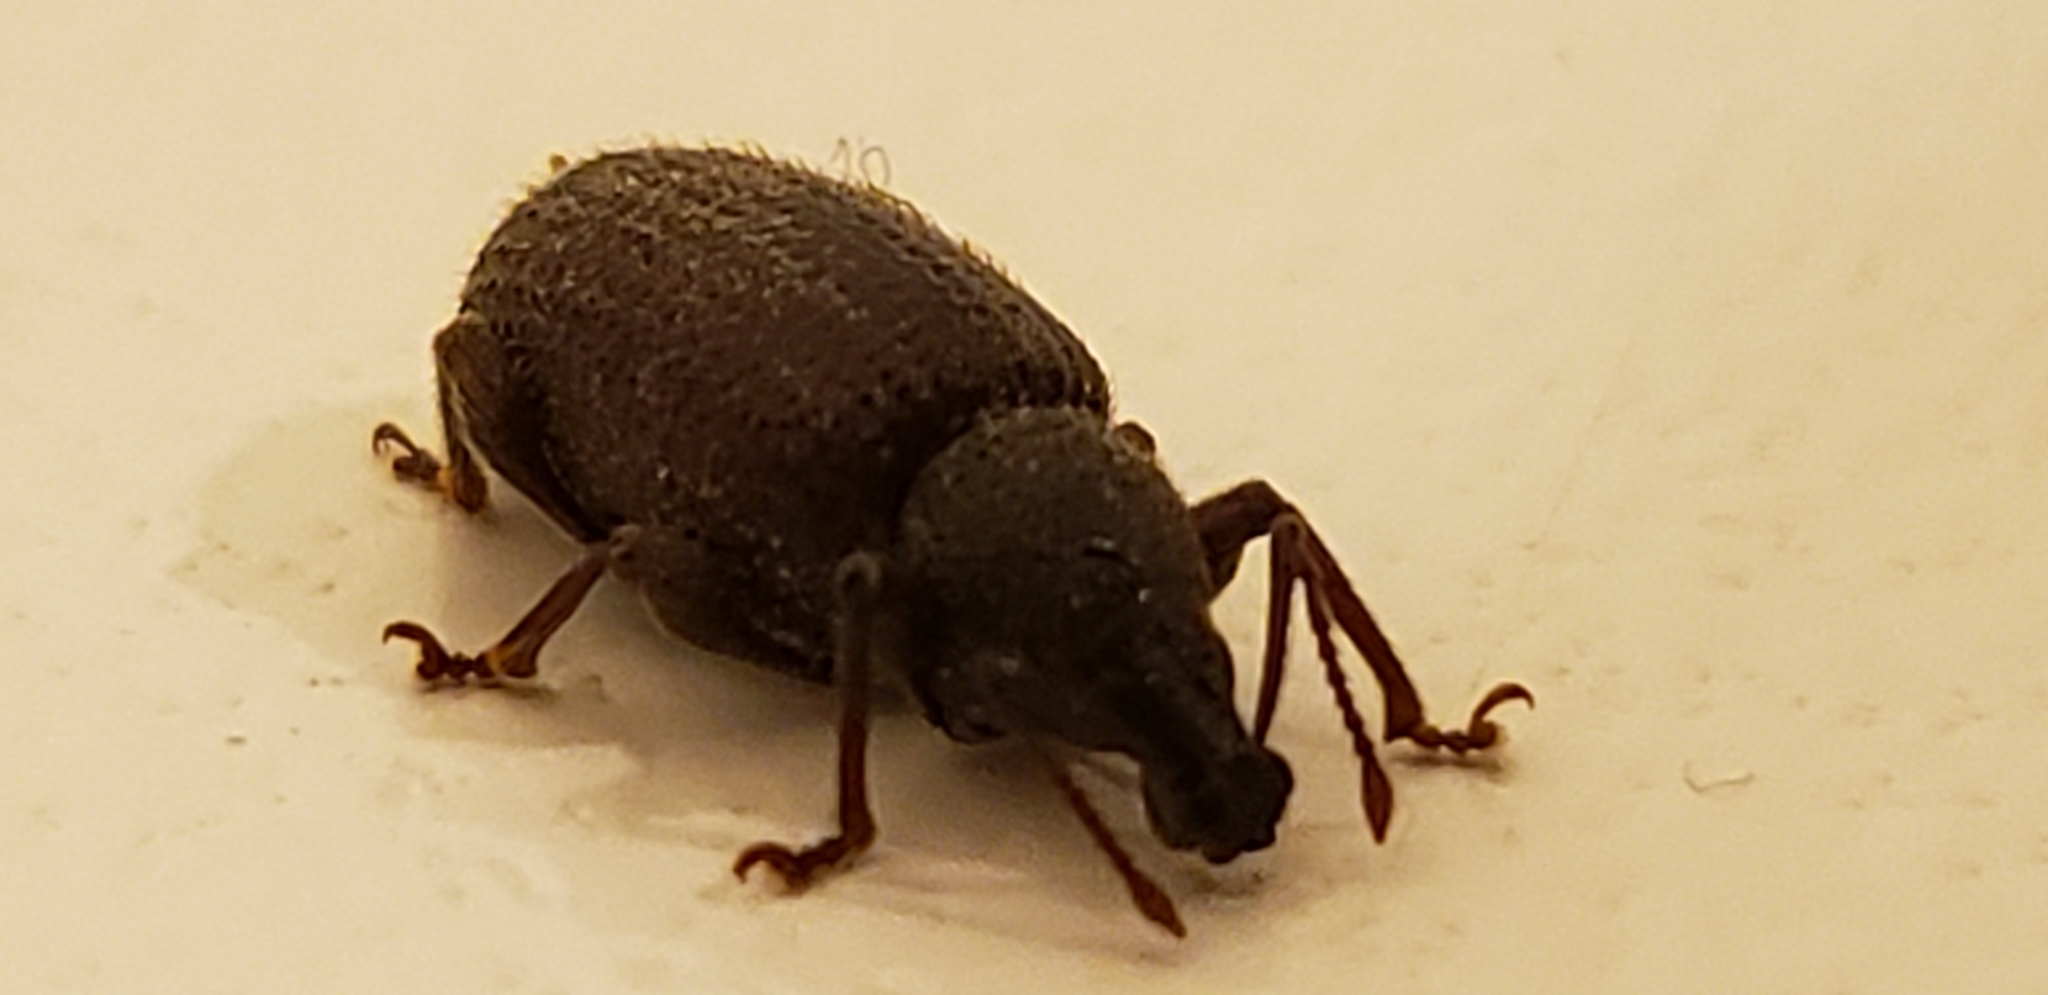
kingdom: Animalia
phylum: Arthropoda
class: Insecta
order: Coleoptera
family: Curculionidae
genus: Otiorhynchus
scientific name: Otiorhynchus rugosostriatus
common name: Weevil
